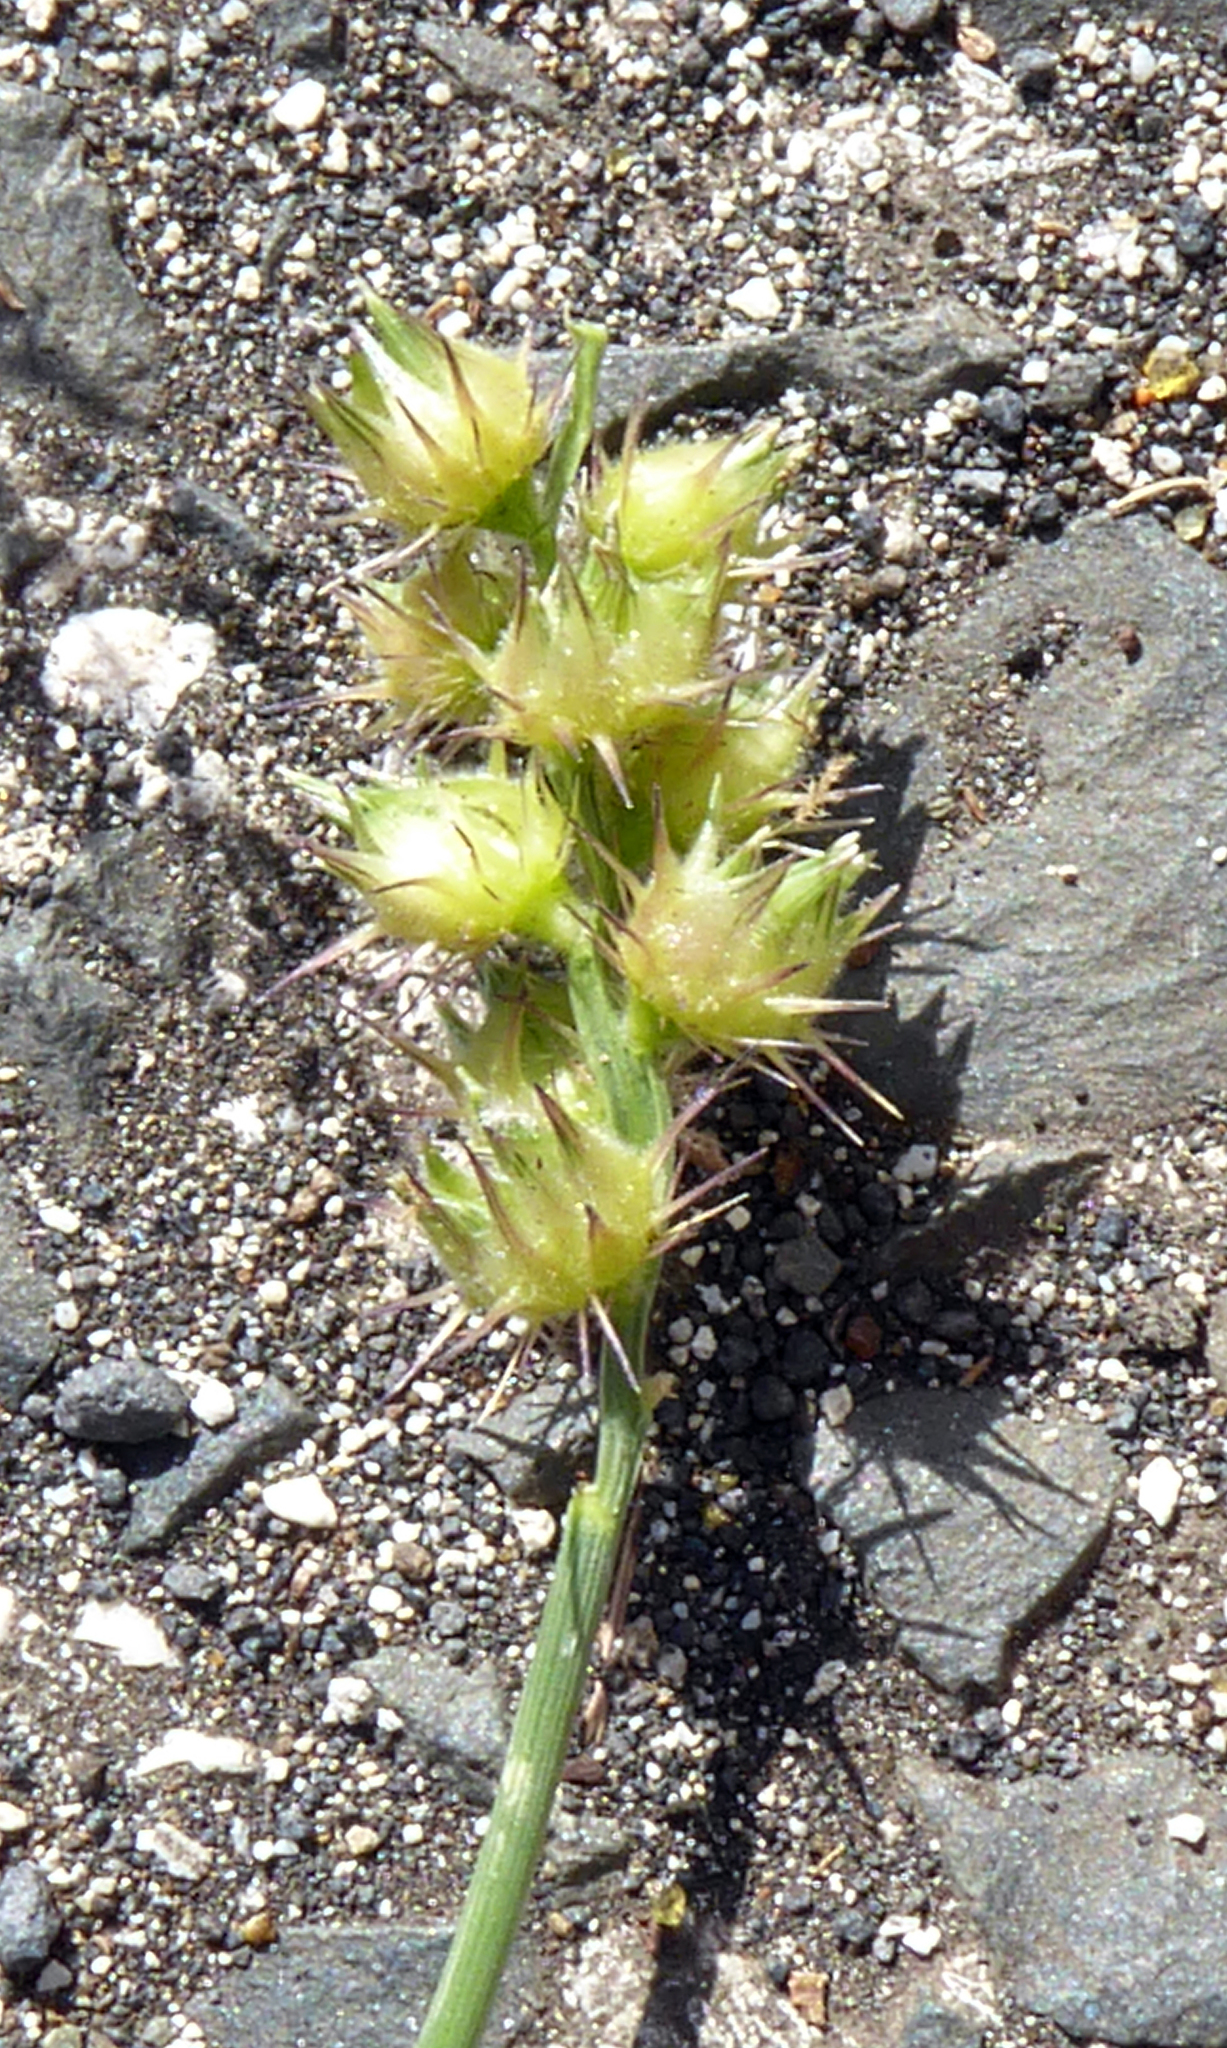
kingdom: Plantae
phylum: Tracheophyta
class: Liliopsida
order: Poales
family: Poaceae
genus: Cenchrus
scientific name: Cenchrus echinatus
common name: Southern sandbur
